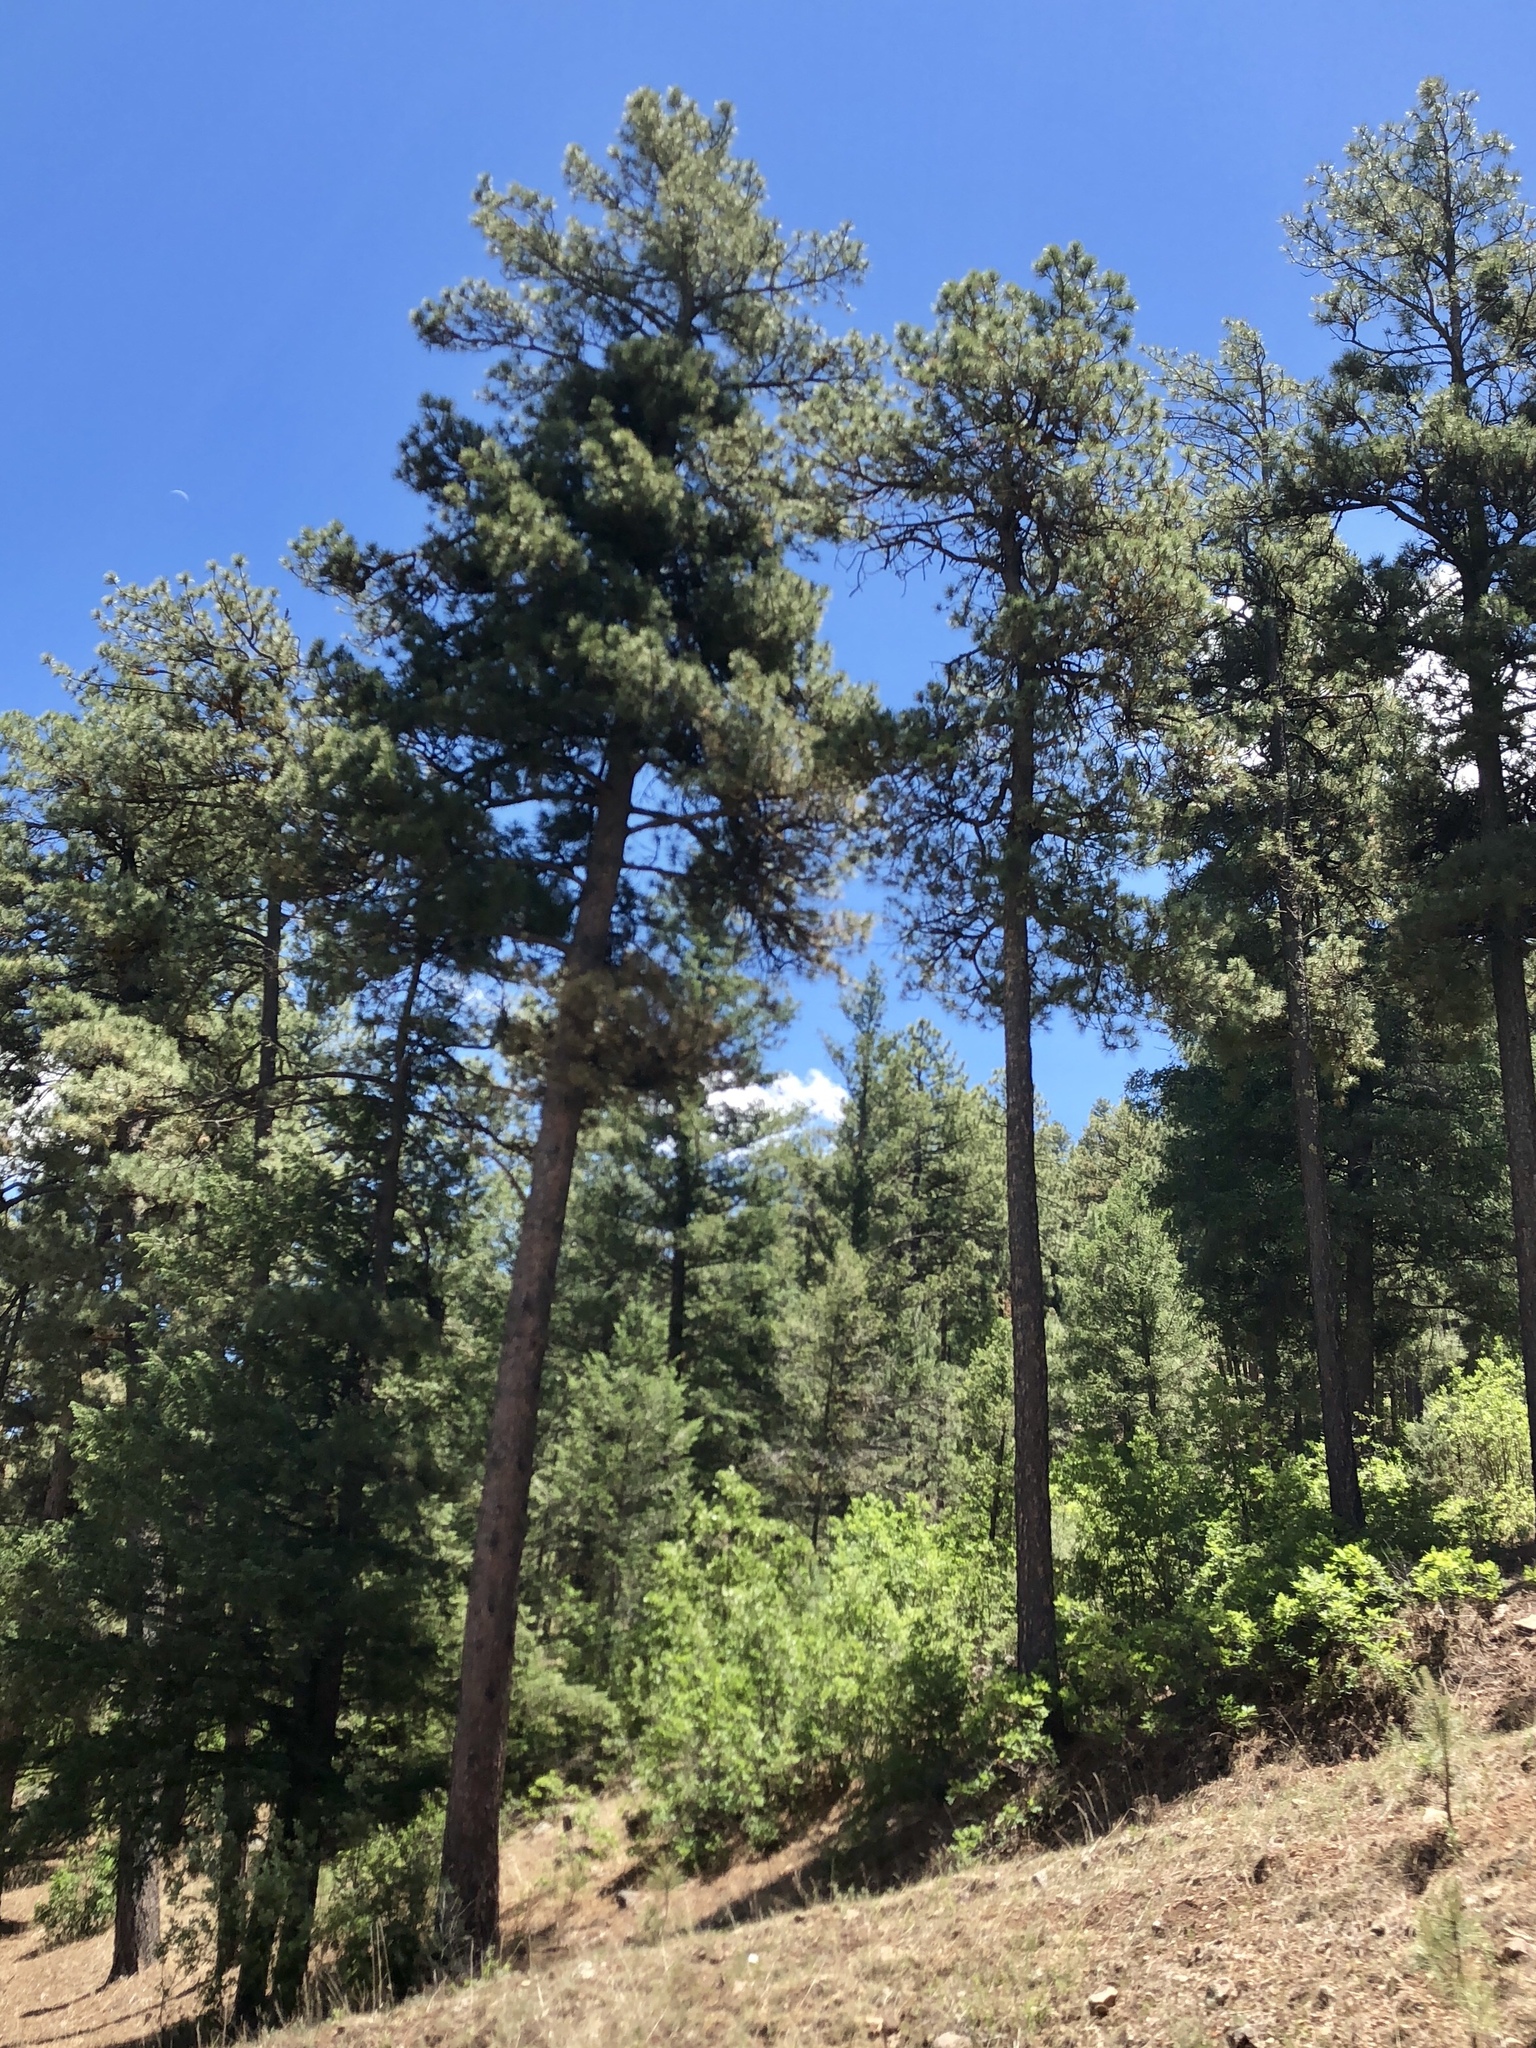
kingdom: Plantae
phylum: Tracheophyta
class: Pinopsida
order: Pinales
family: Pinaceae
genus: Pinus
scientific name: Pinus ponderosa
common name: Western yellow-pine
